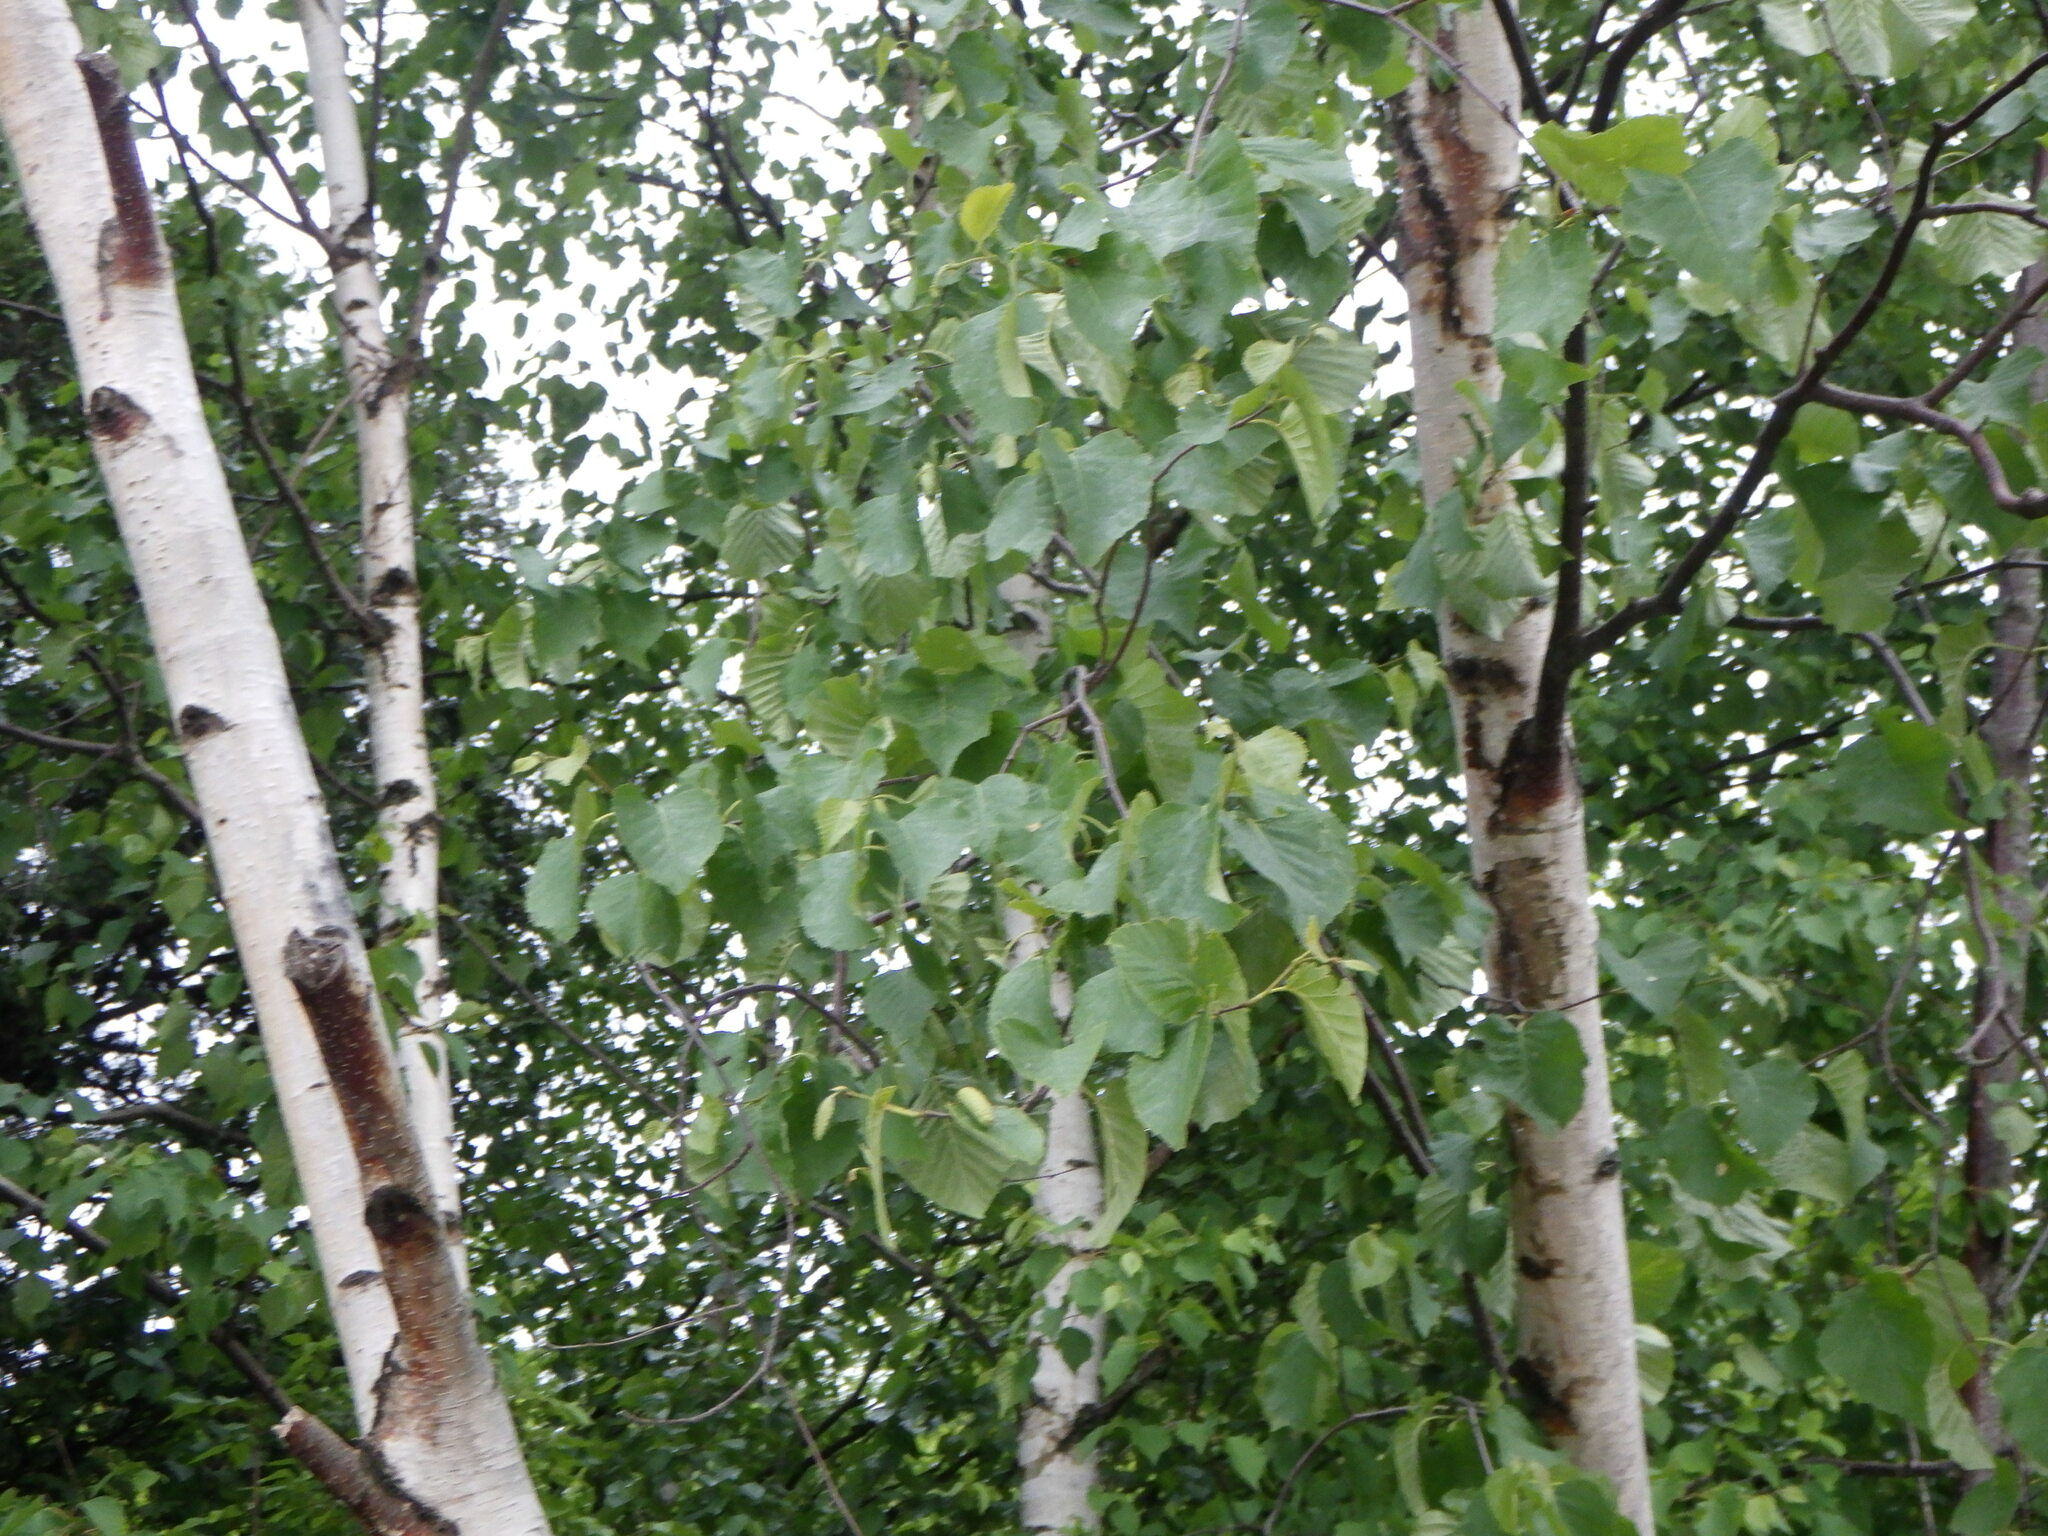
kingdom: Plantae
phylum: Tracheophyta
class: Magnoliopsida
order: Fagales
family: Betulaceae
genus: Betula
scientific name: Betula papyrifera
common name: Paper birch
